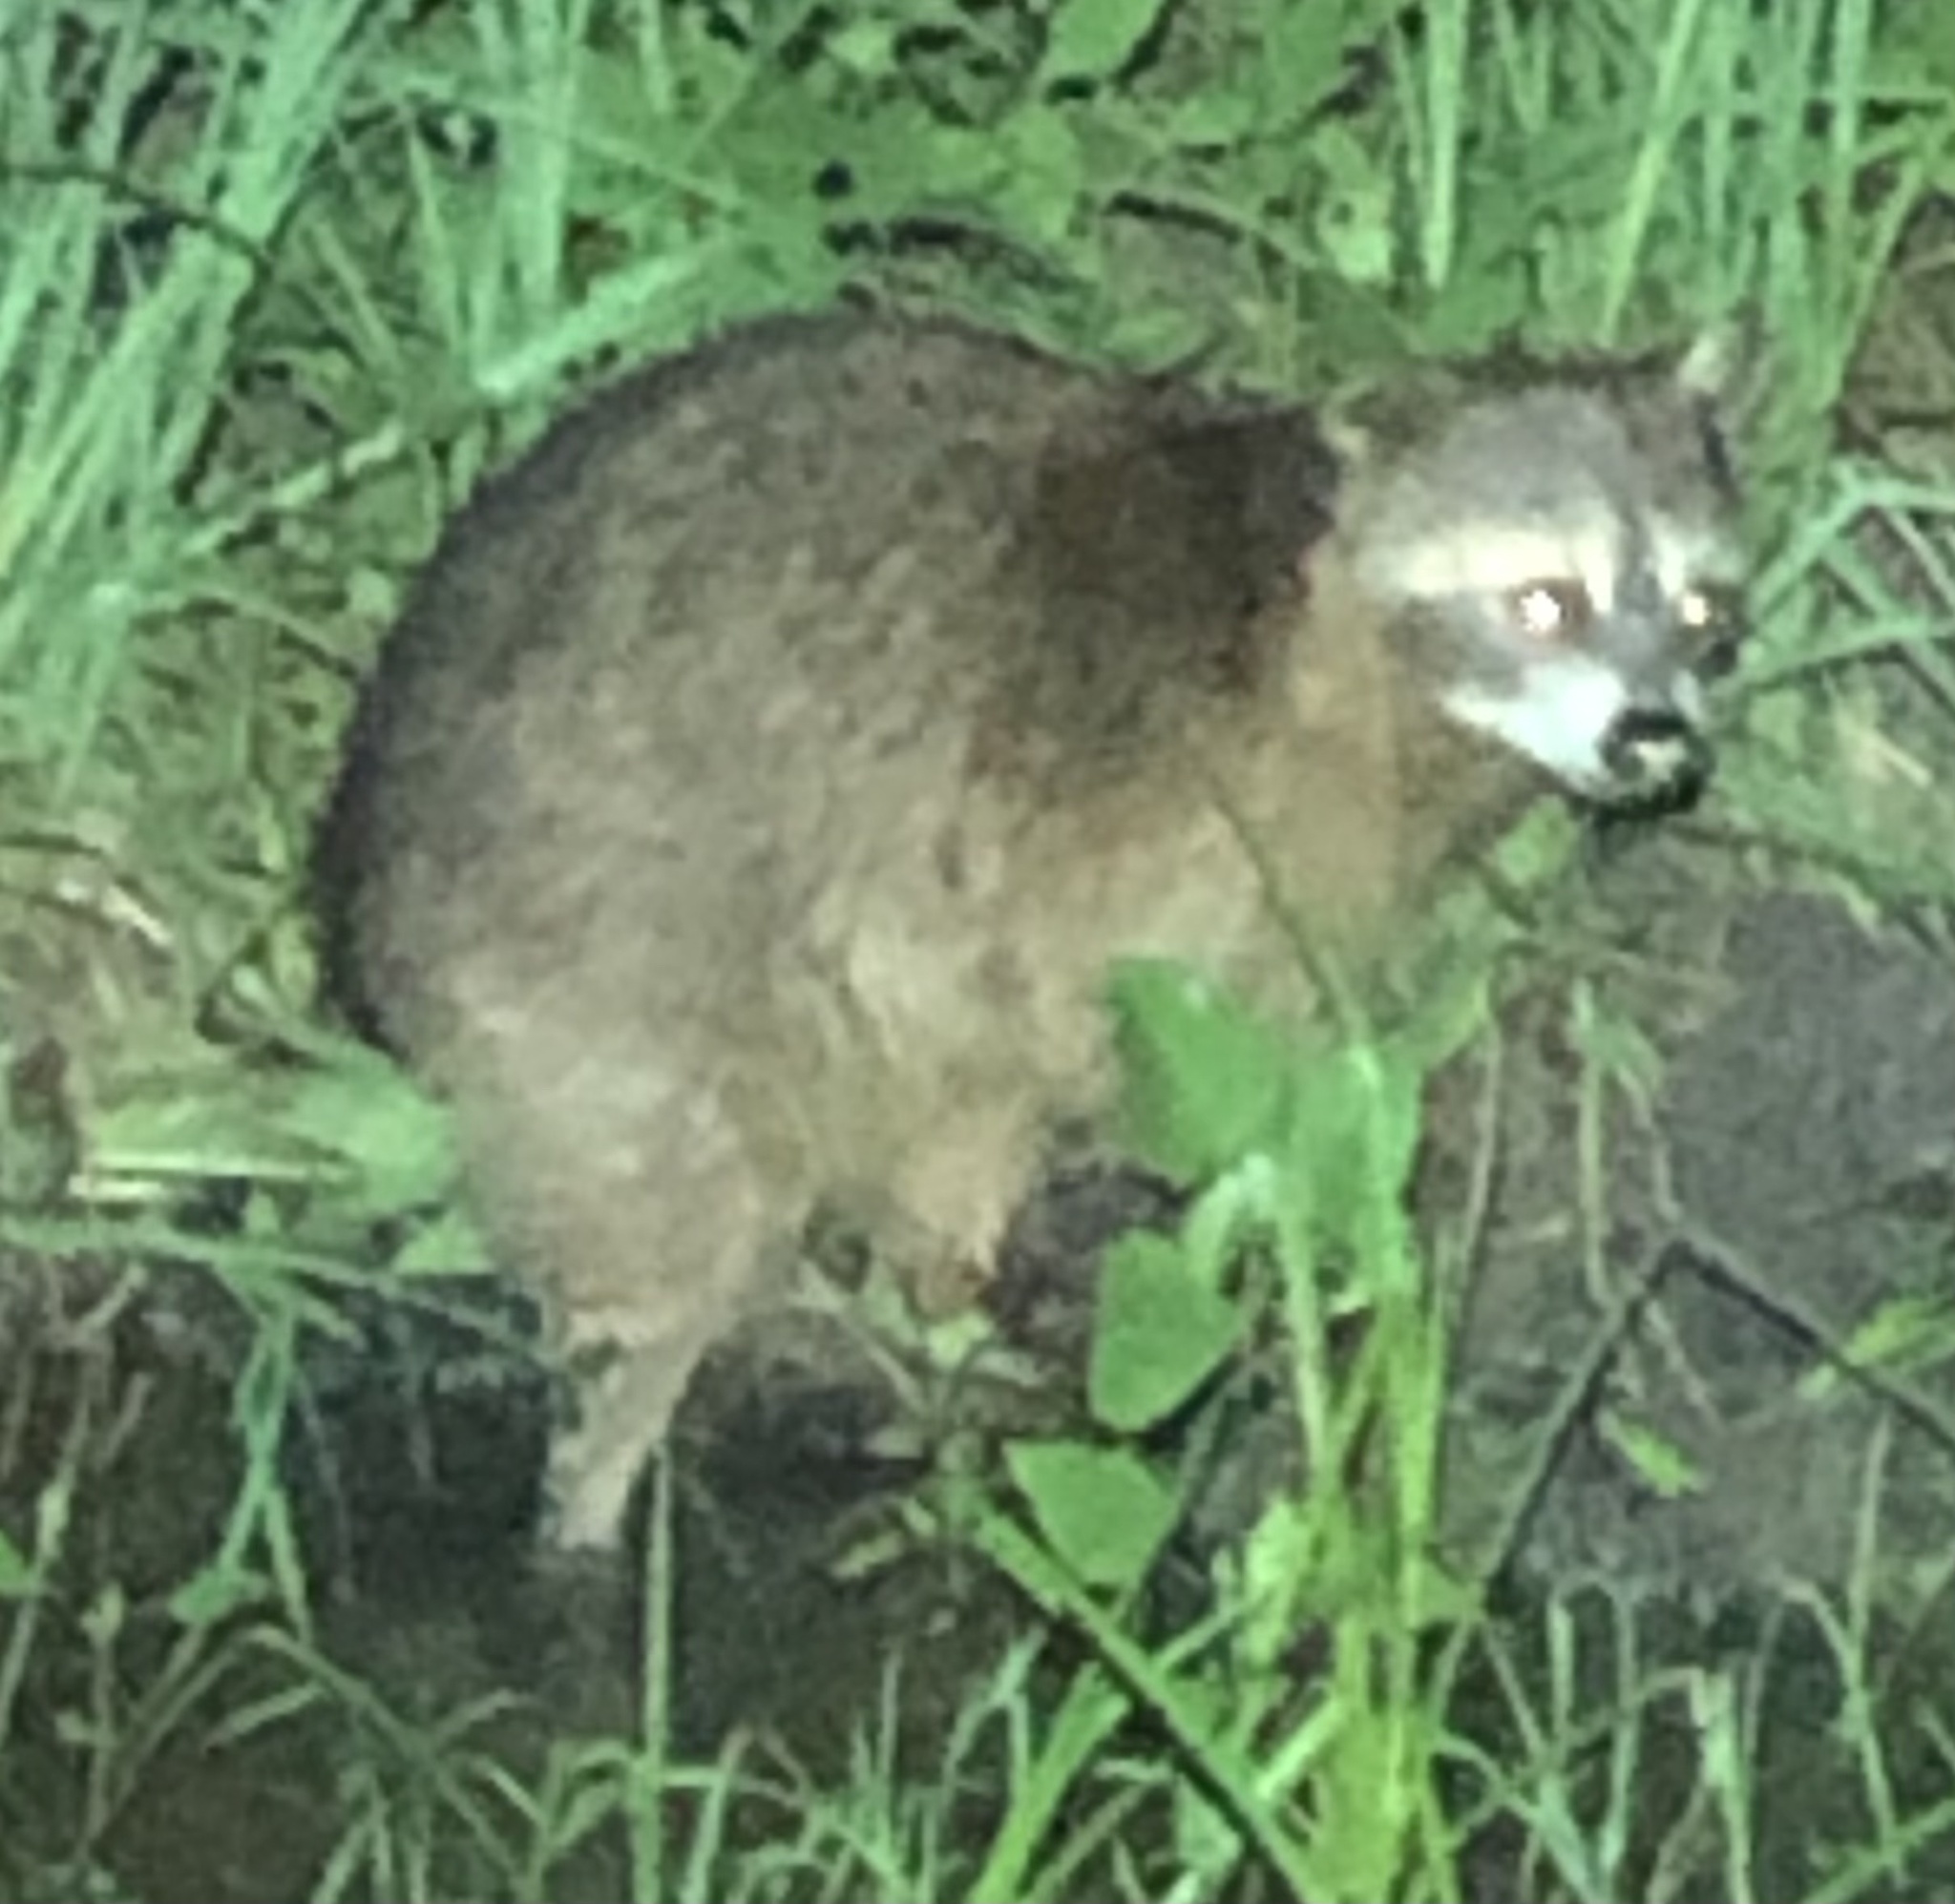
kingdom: Animalia
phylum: Chordata
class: Mammalia
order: Carnivora
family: Procyonidae
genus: Procyon
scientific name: Procyon lotor
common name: Raccoon
